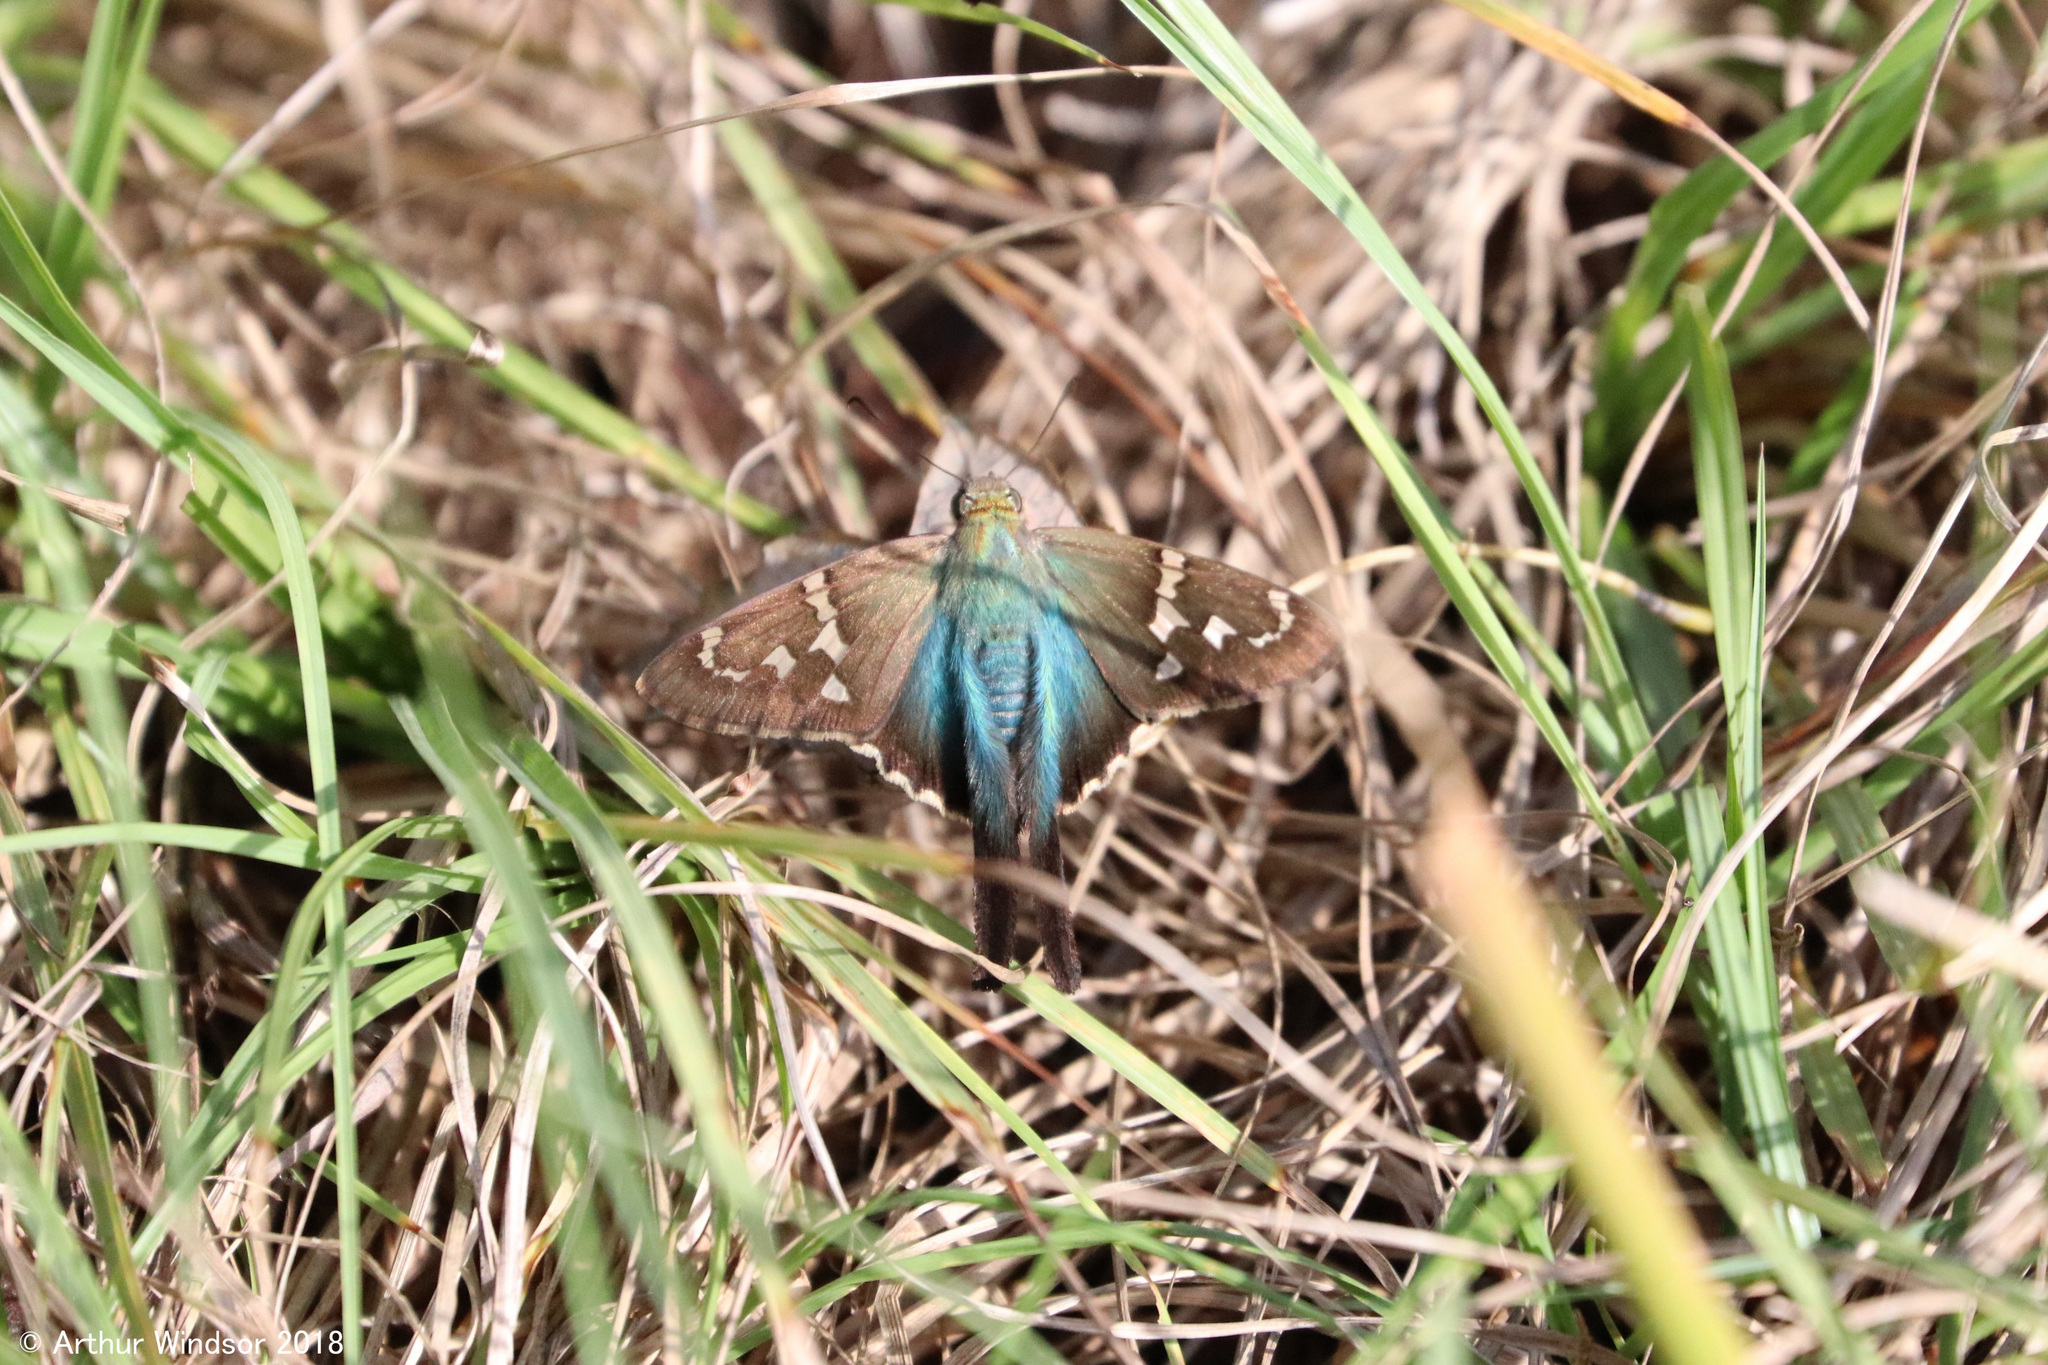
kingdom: Animalia
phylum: Arthropoda
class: Insecta
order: Lepidoptera
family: Hesperiidae
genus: Urbanus
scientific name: Urbanus proteus
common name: Long-tailed skipper
